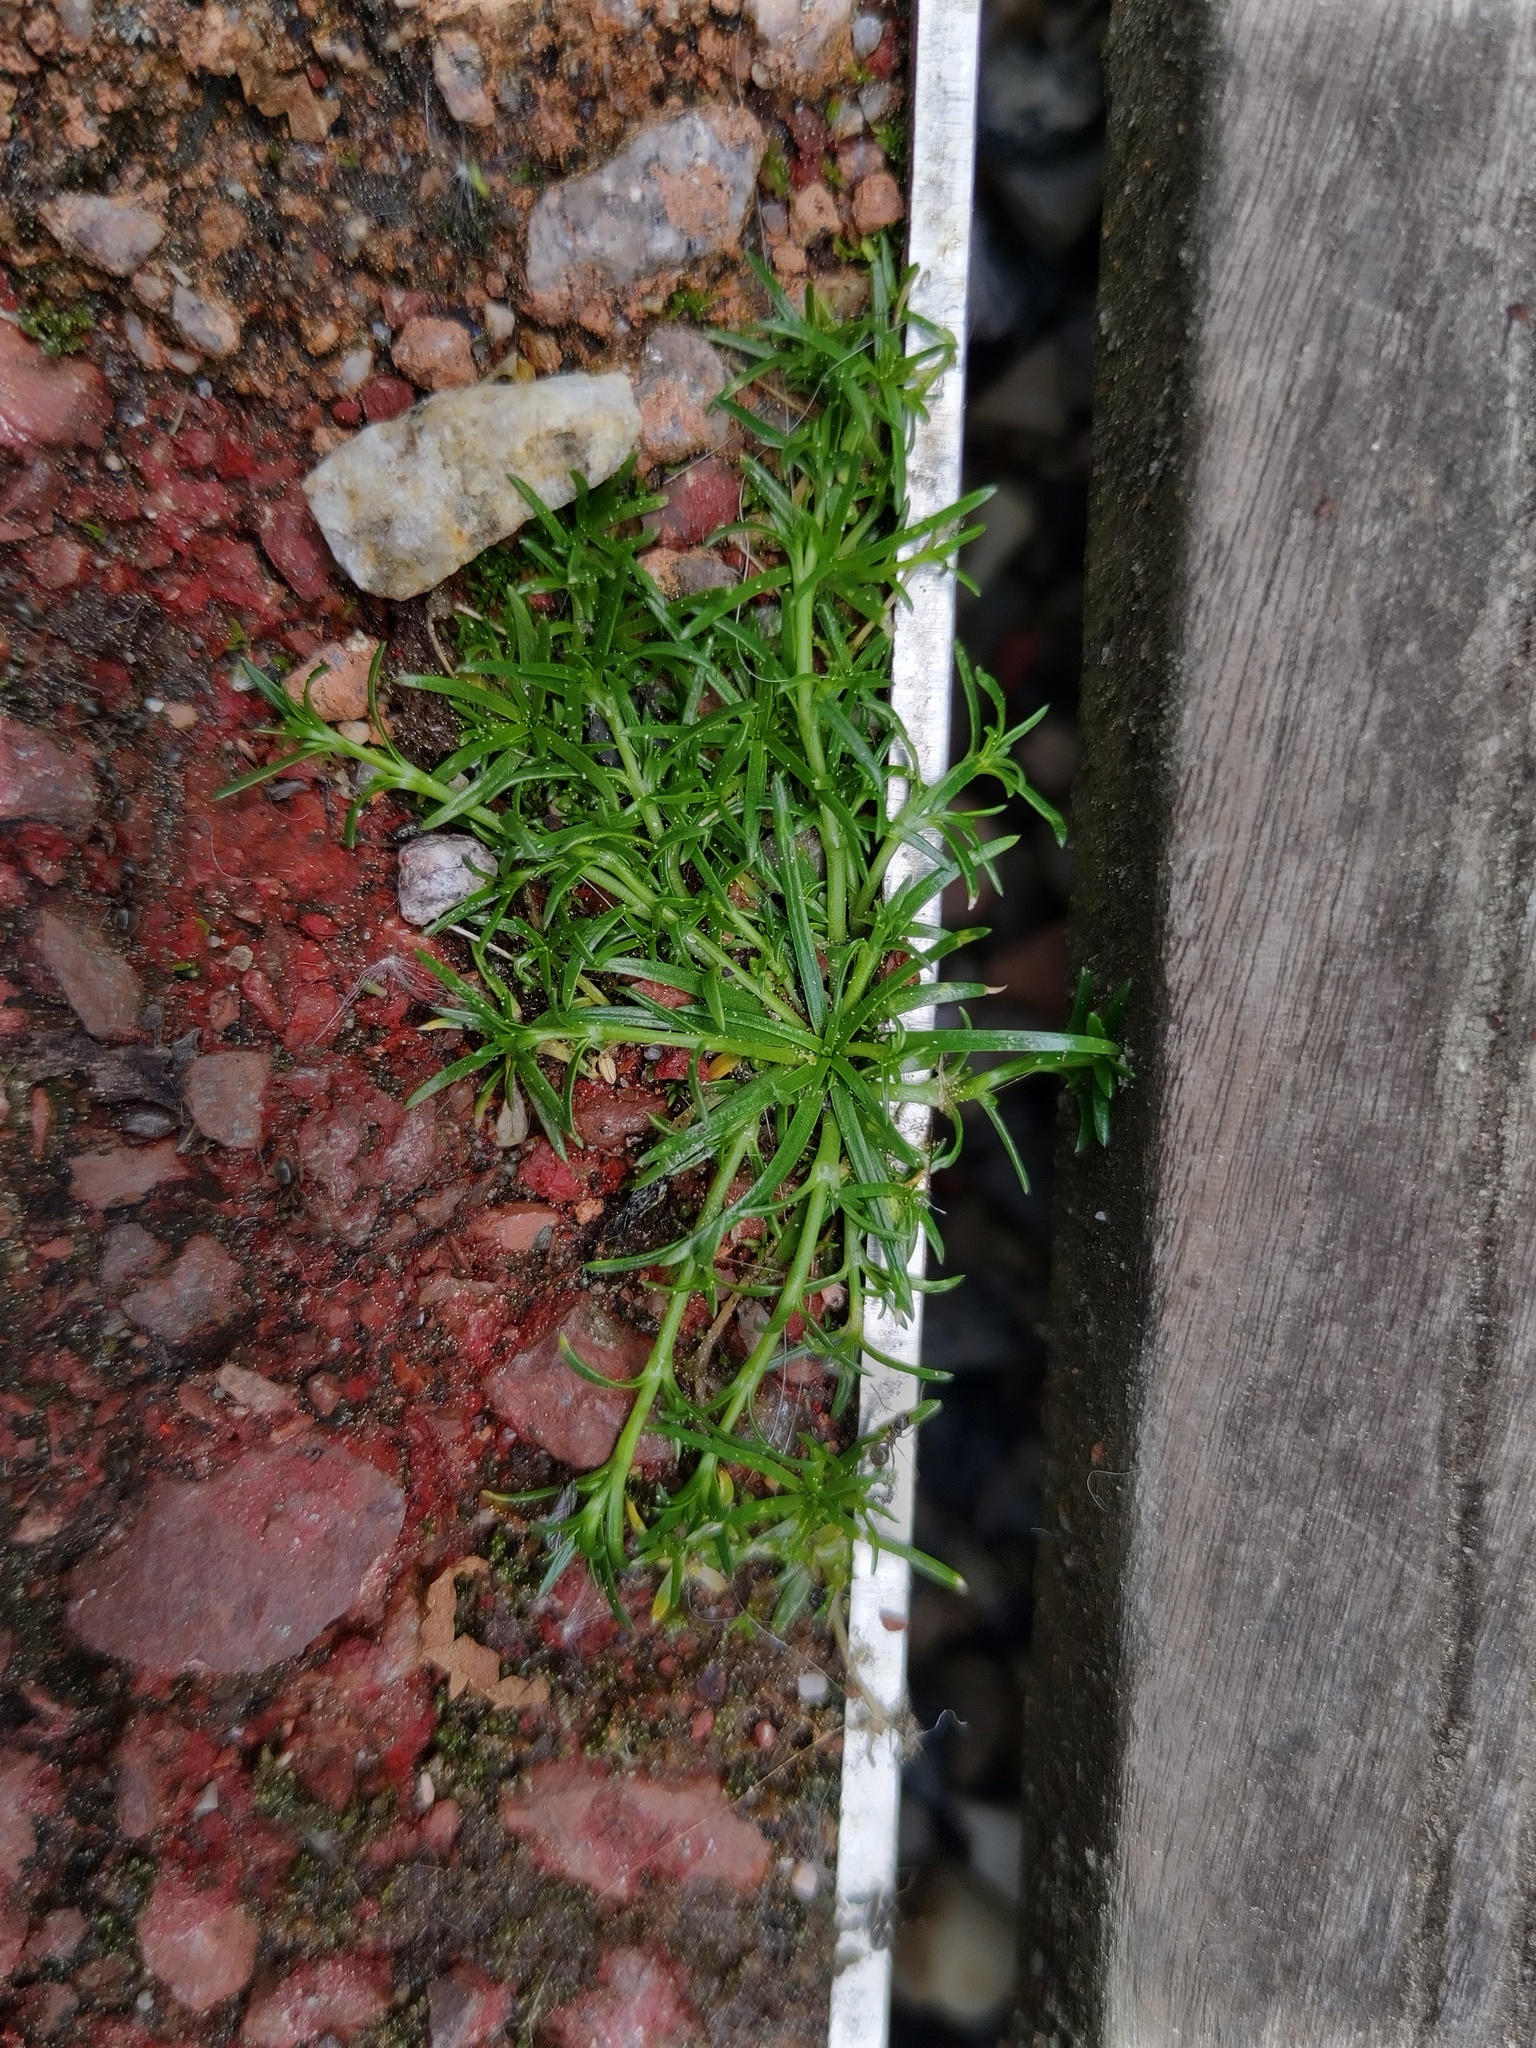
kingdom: Plantae
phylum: Tracheophyta
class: Magnoliopsida
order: Caryophyllales
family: Caryophyllaceae
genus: Sagina
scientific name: Sagina procumbens
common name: Procumbent pearlwort
